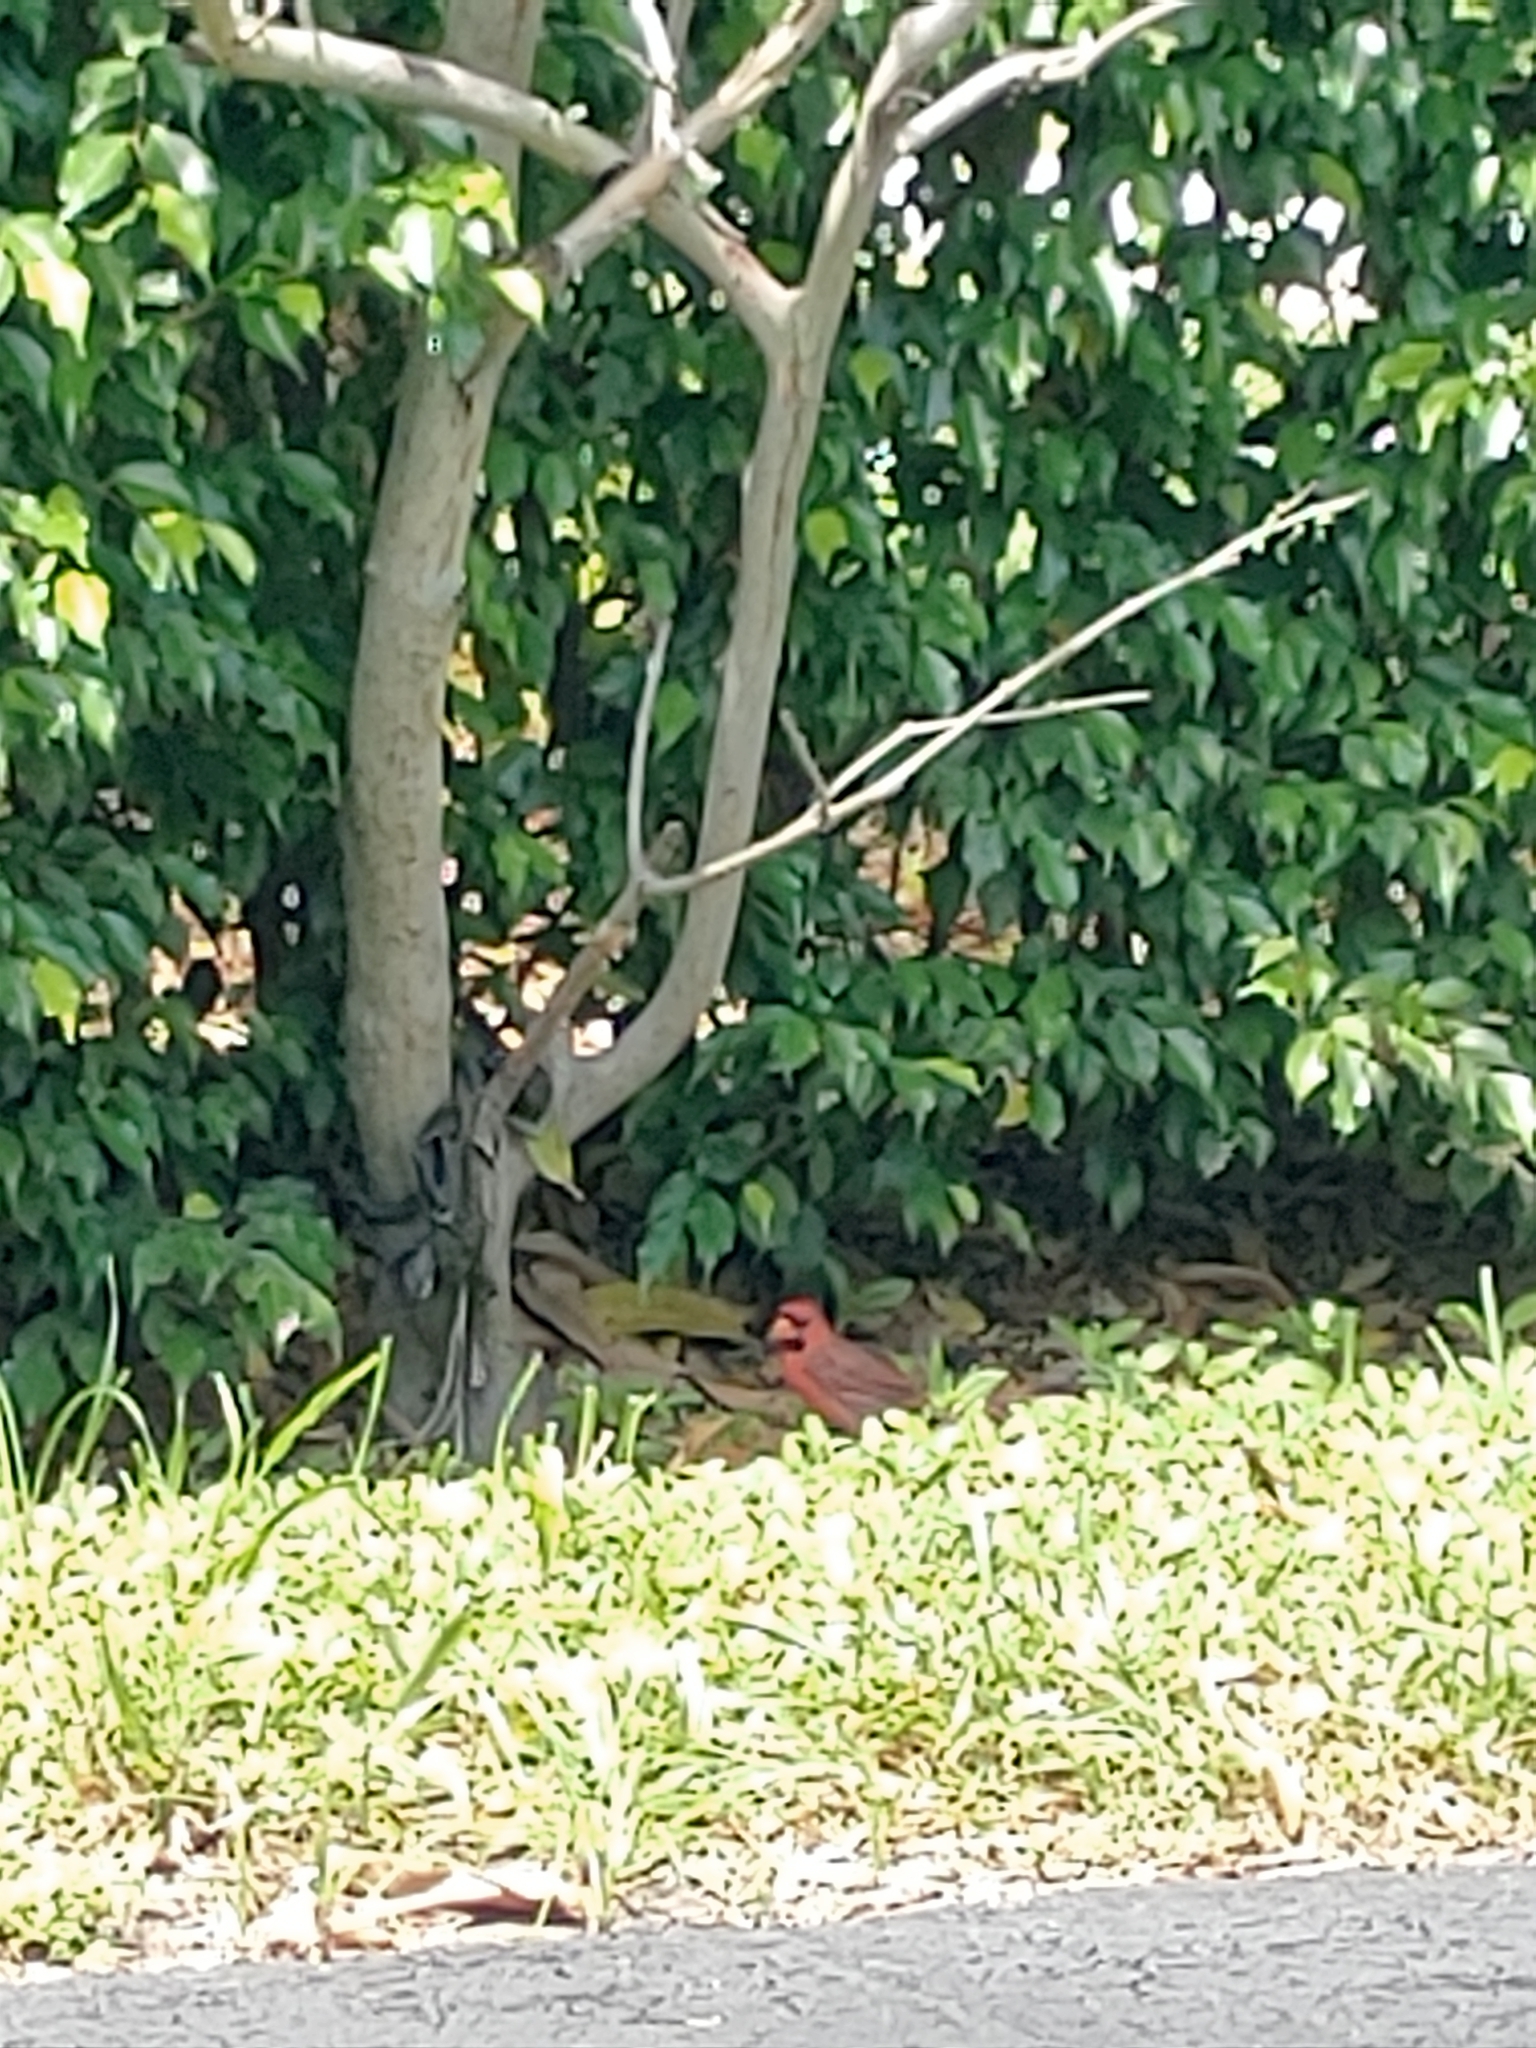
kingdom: Animalia
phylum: Chordata
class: Aves
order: Passeriformes
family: Cardinalidae
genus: Cardinalis
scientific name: Cardinalis cardinalis
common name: Northern cardinal
